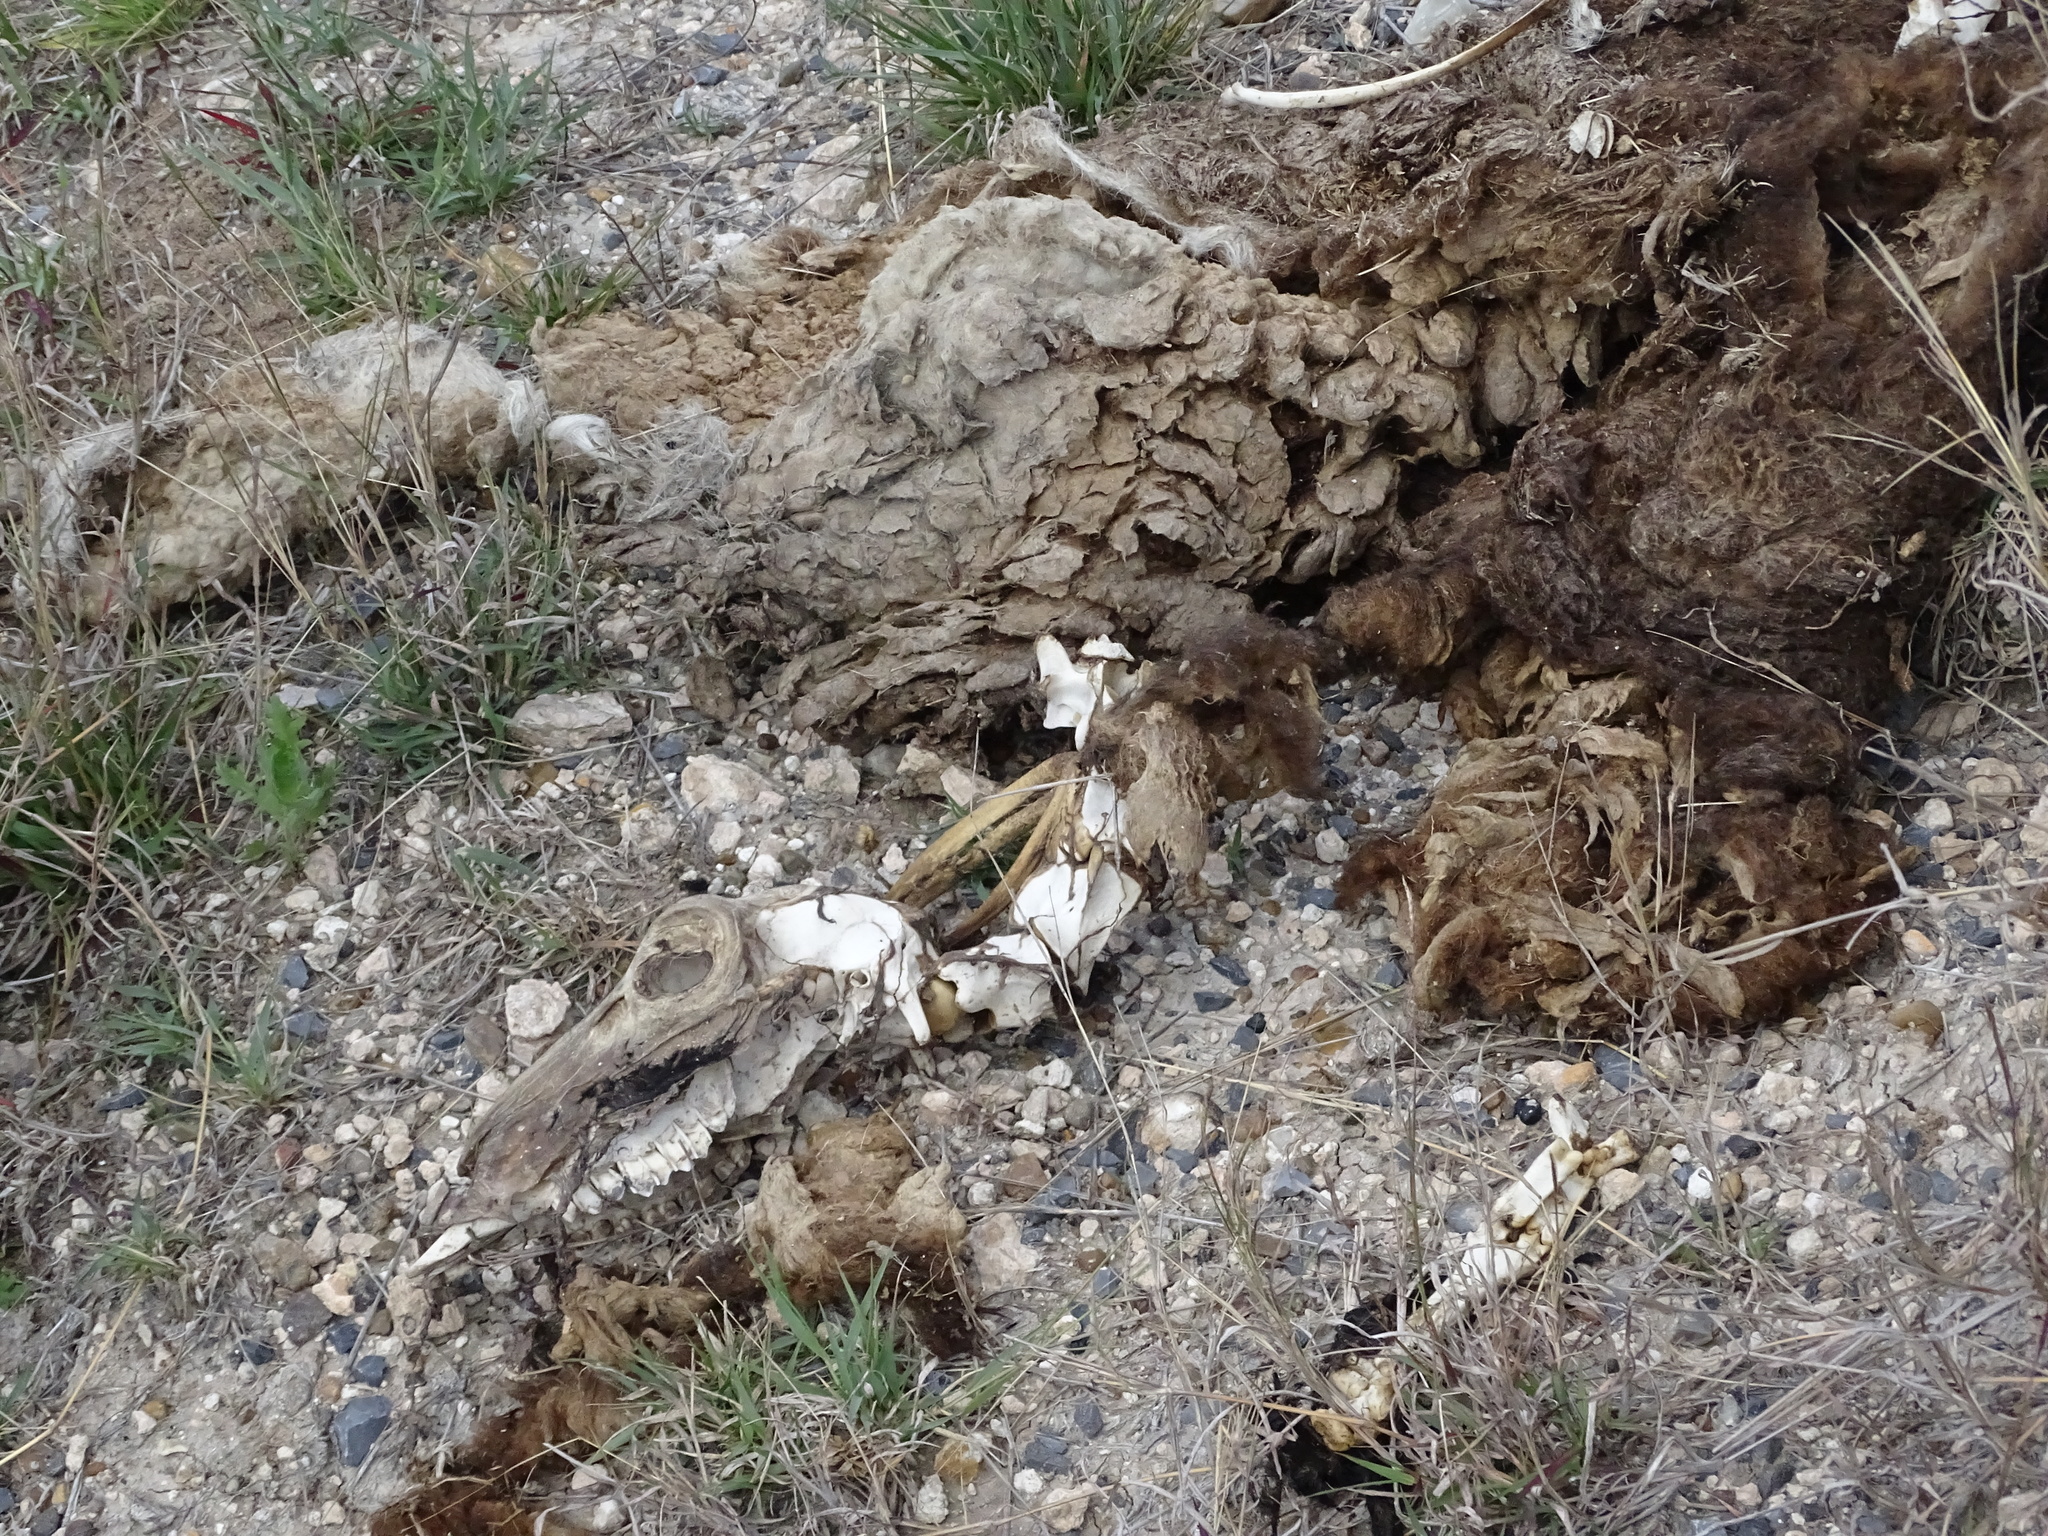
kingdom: Animalia
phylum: Chordata
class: Mammalia
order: Artiodactyla
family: Bovidae
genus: Ovis
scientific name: Ovis aries
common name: Domestic sheep
